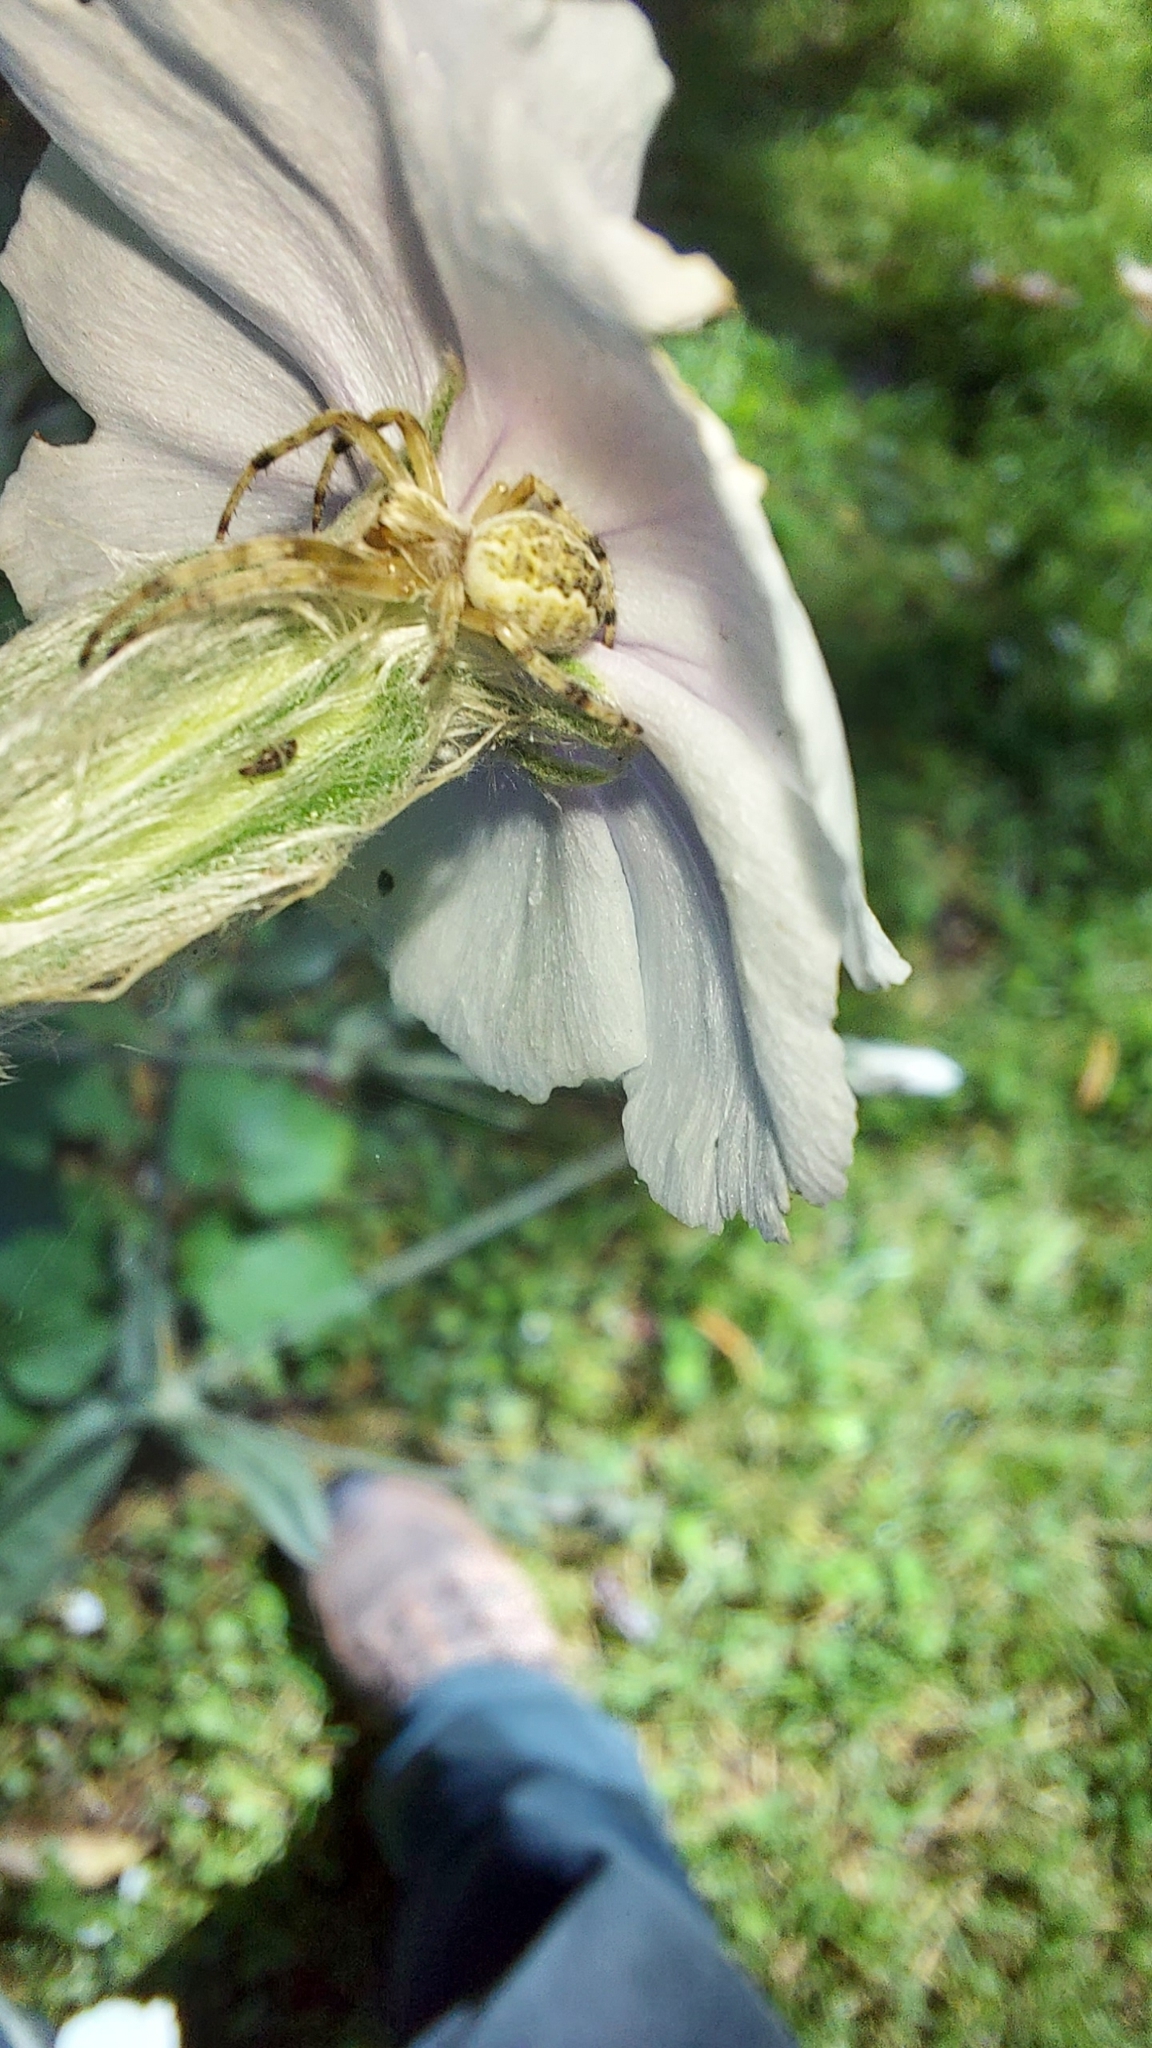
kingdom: Animalia
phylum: Arthropoda
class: Arachnida
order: Araneae
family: Araneidae
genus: Salsa
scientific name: Salsa fuliginata
